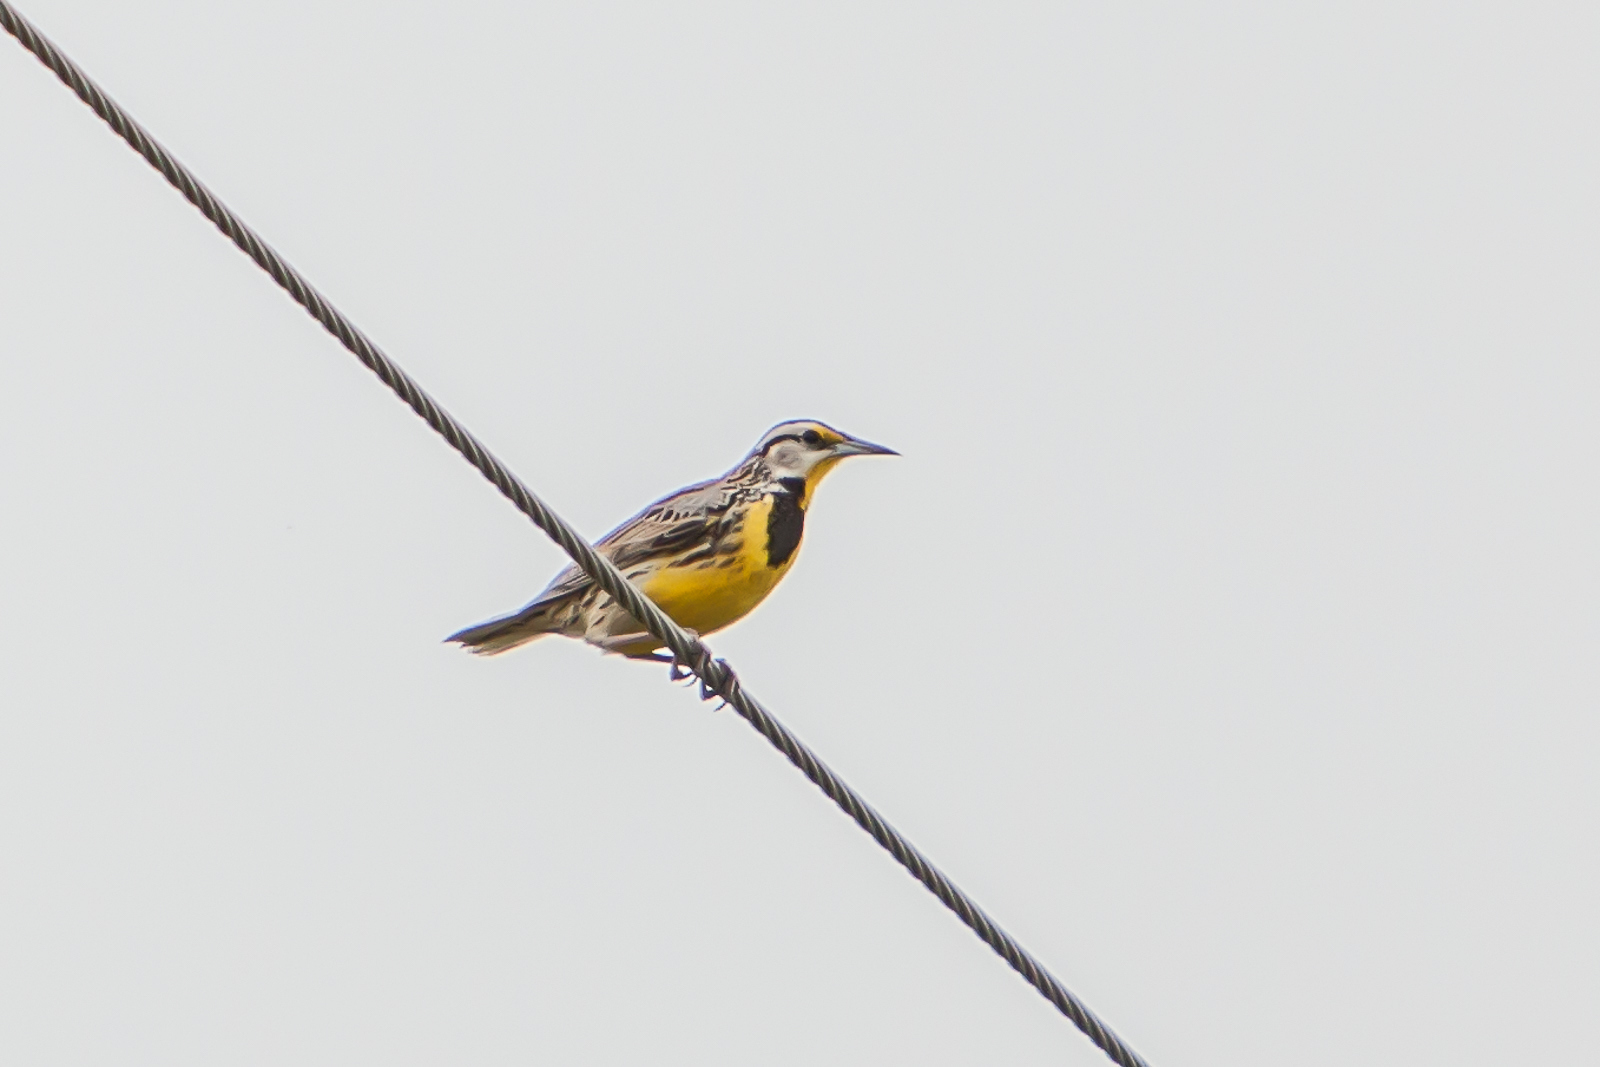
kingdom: Animalia
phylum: Chordata
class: Aves
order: Passeriformes
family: Icteridae
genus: Sturnella
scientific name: Sturnella magna
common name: Eastern meadowlark
